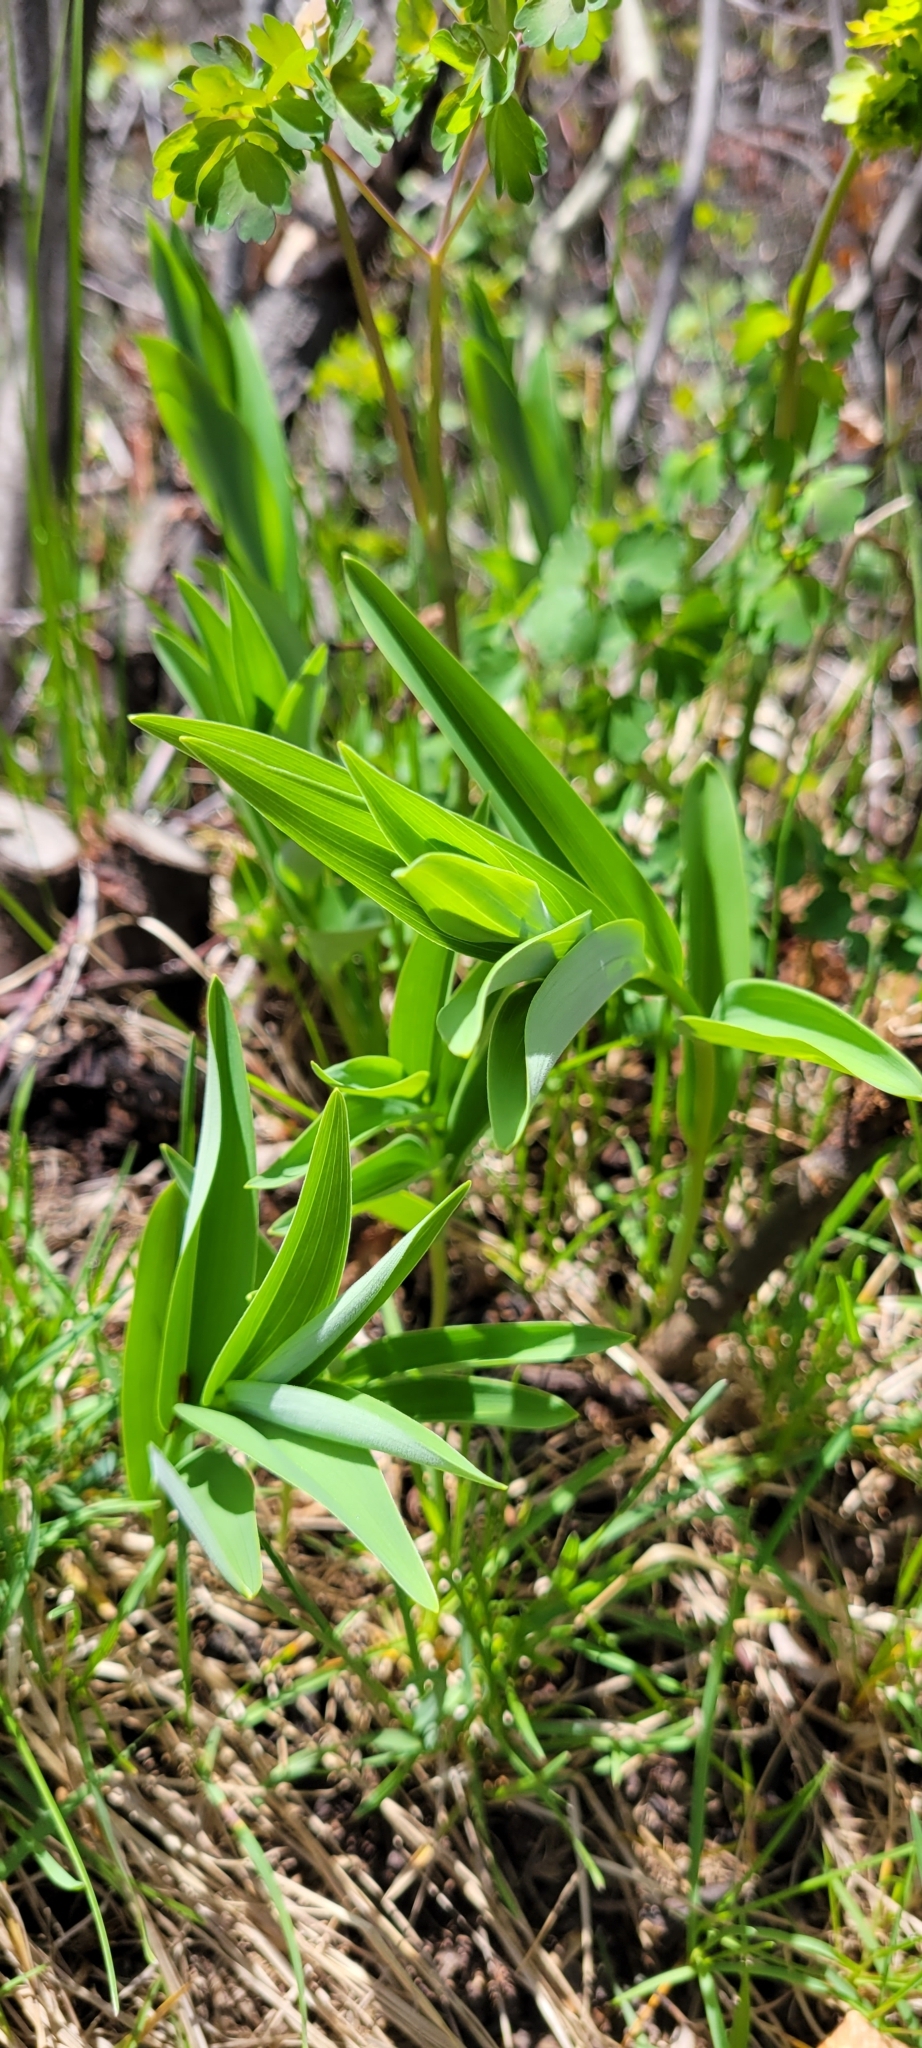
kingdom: Plantae
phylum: Tracheophyta
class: Liliopsida
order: Asparagales
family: Asparagaceae
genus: Maianthemum
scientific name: Maianthemum stellatum
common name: Little false solomon's seal
